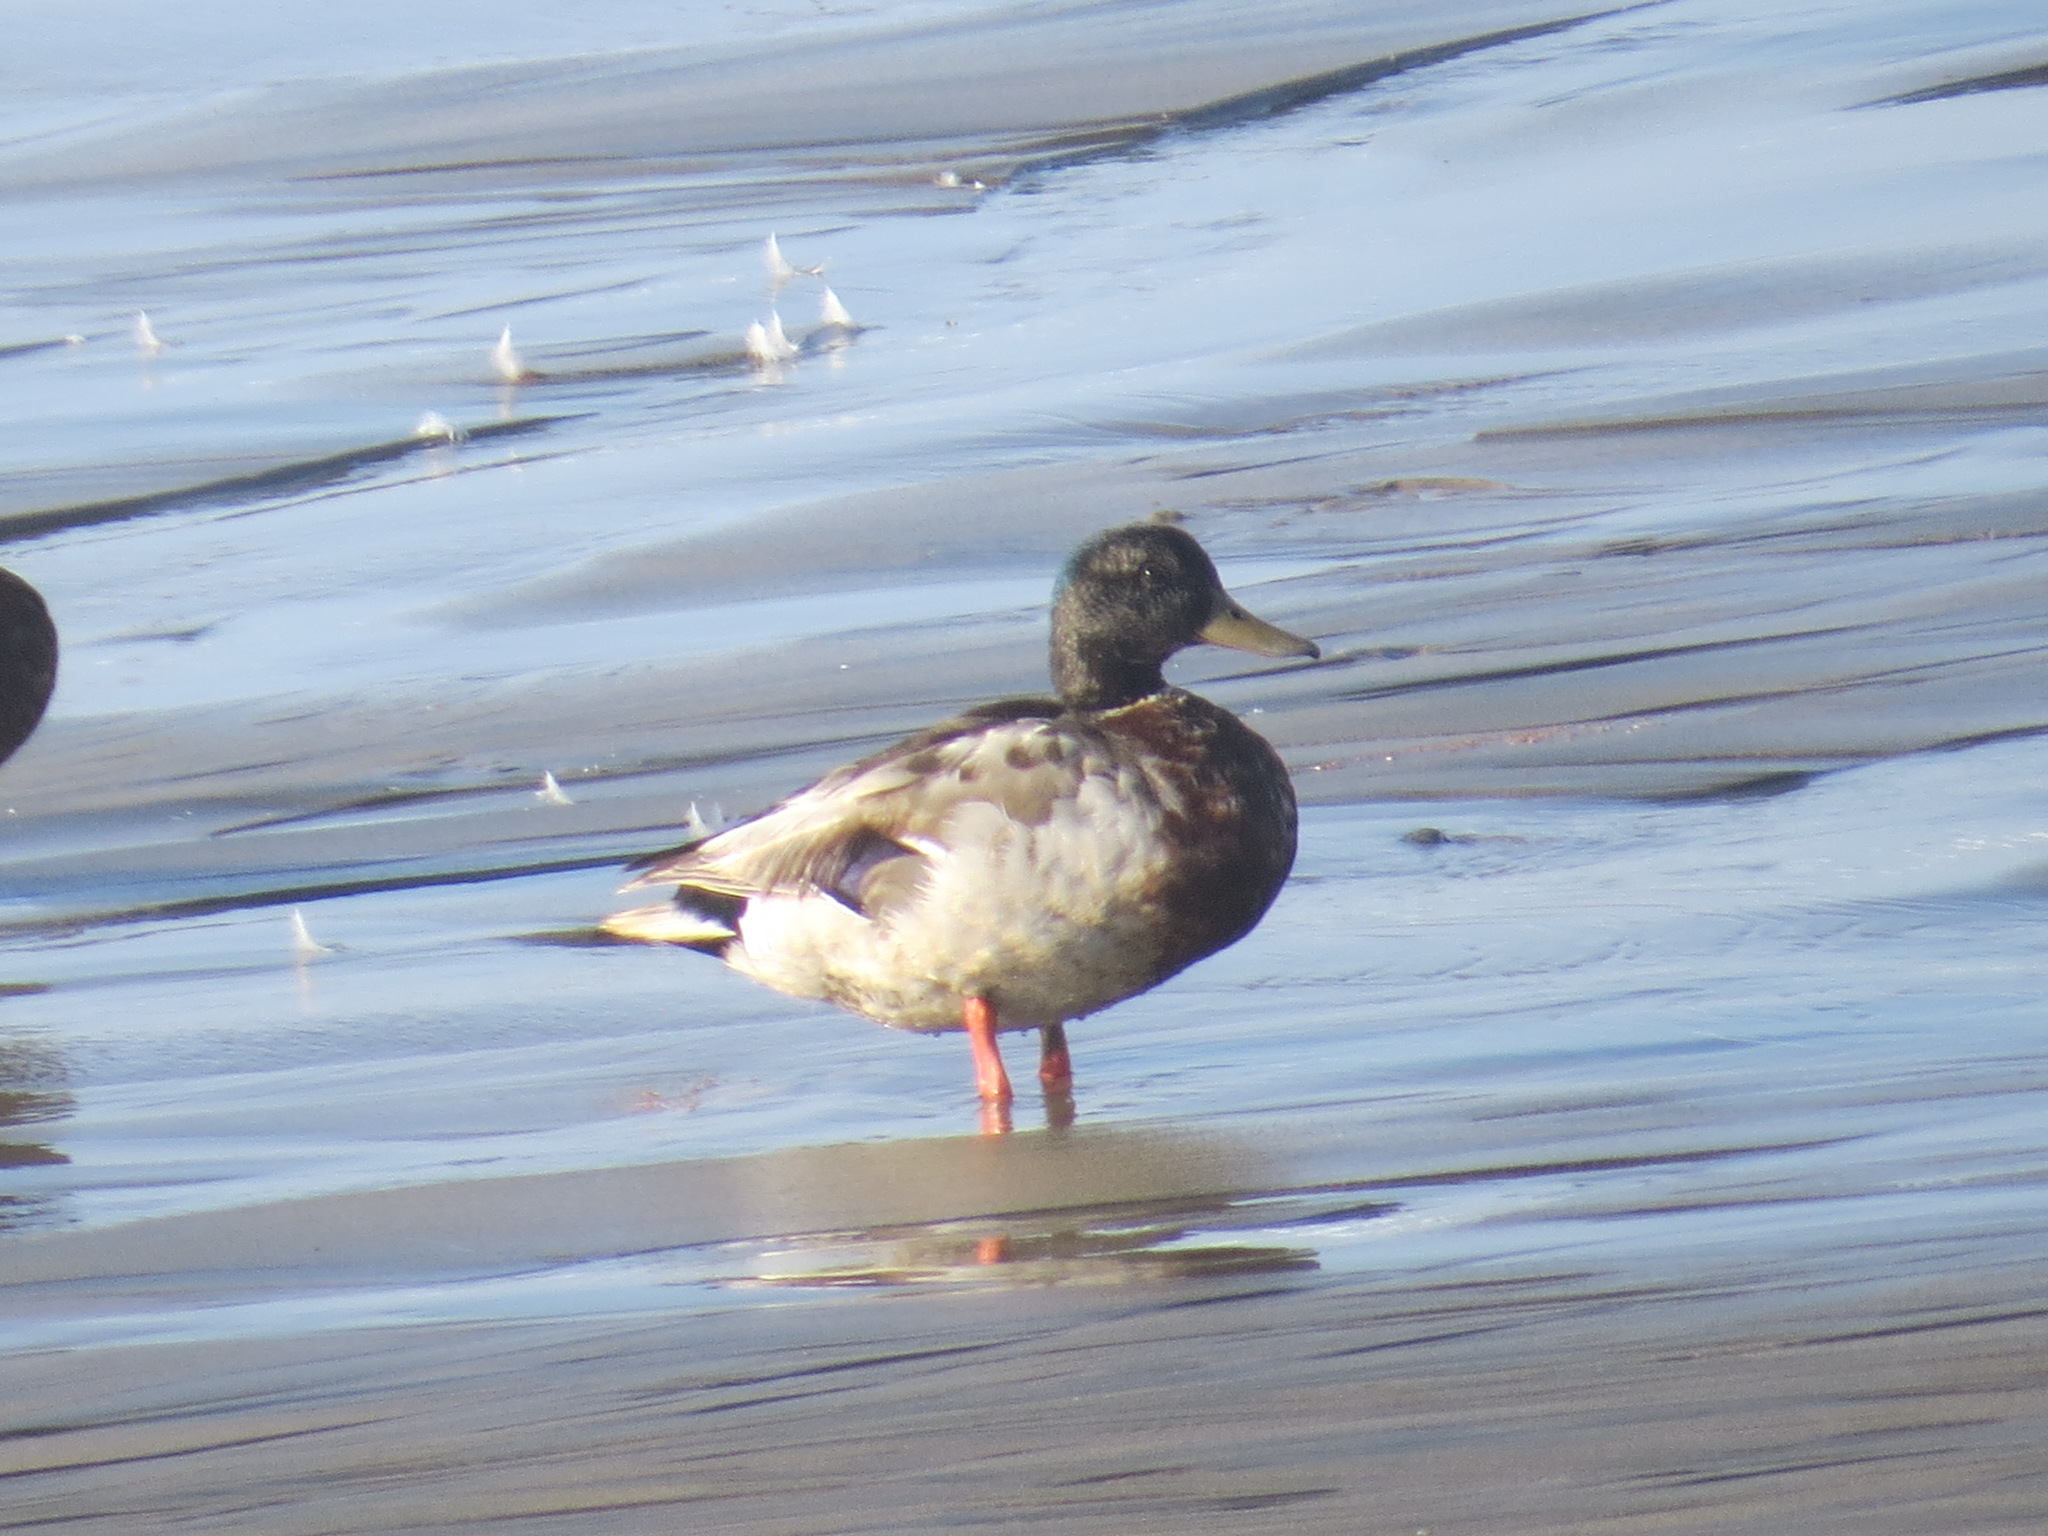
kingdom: Animalia
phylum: Chordata
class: Aves
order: Anseriformes
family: Anatidae
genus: Anas
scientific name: Anas platyrhynchos
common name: Mallard
